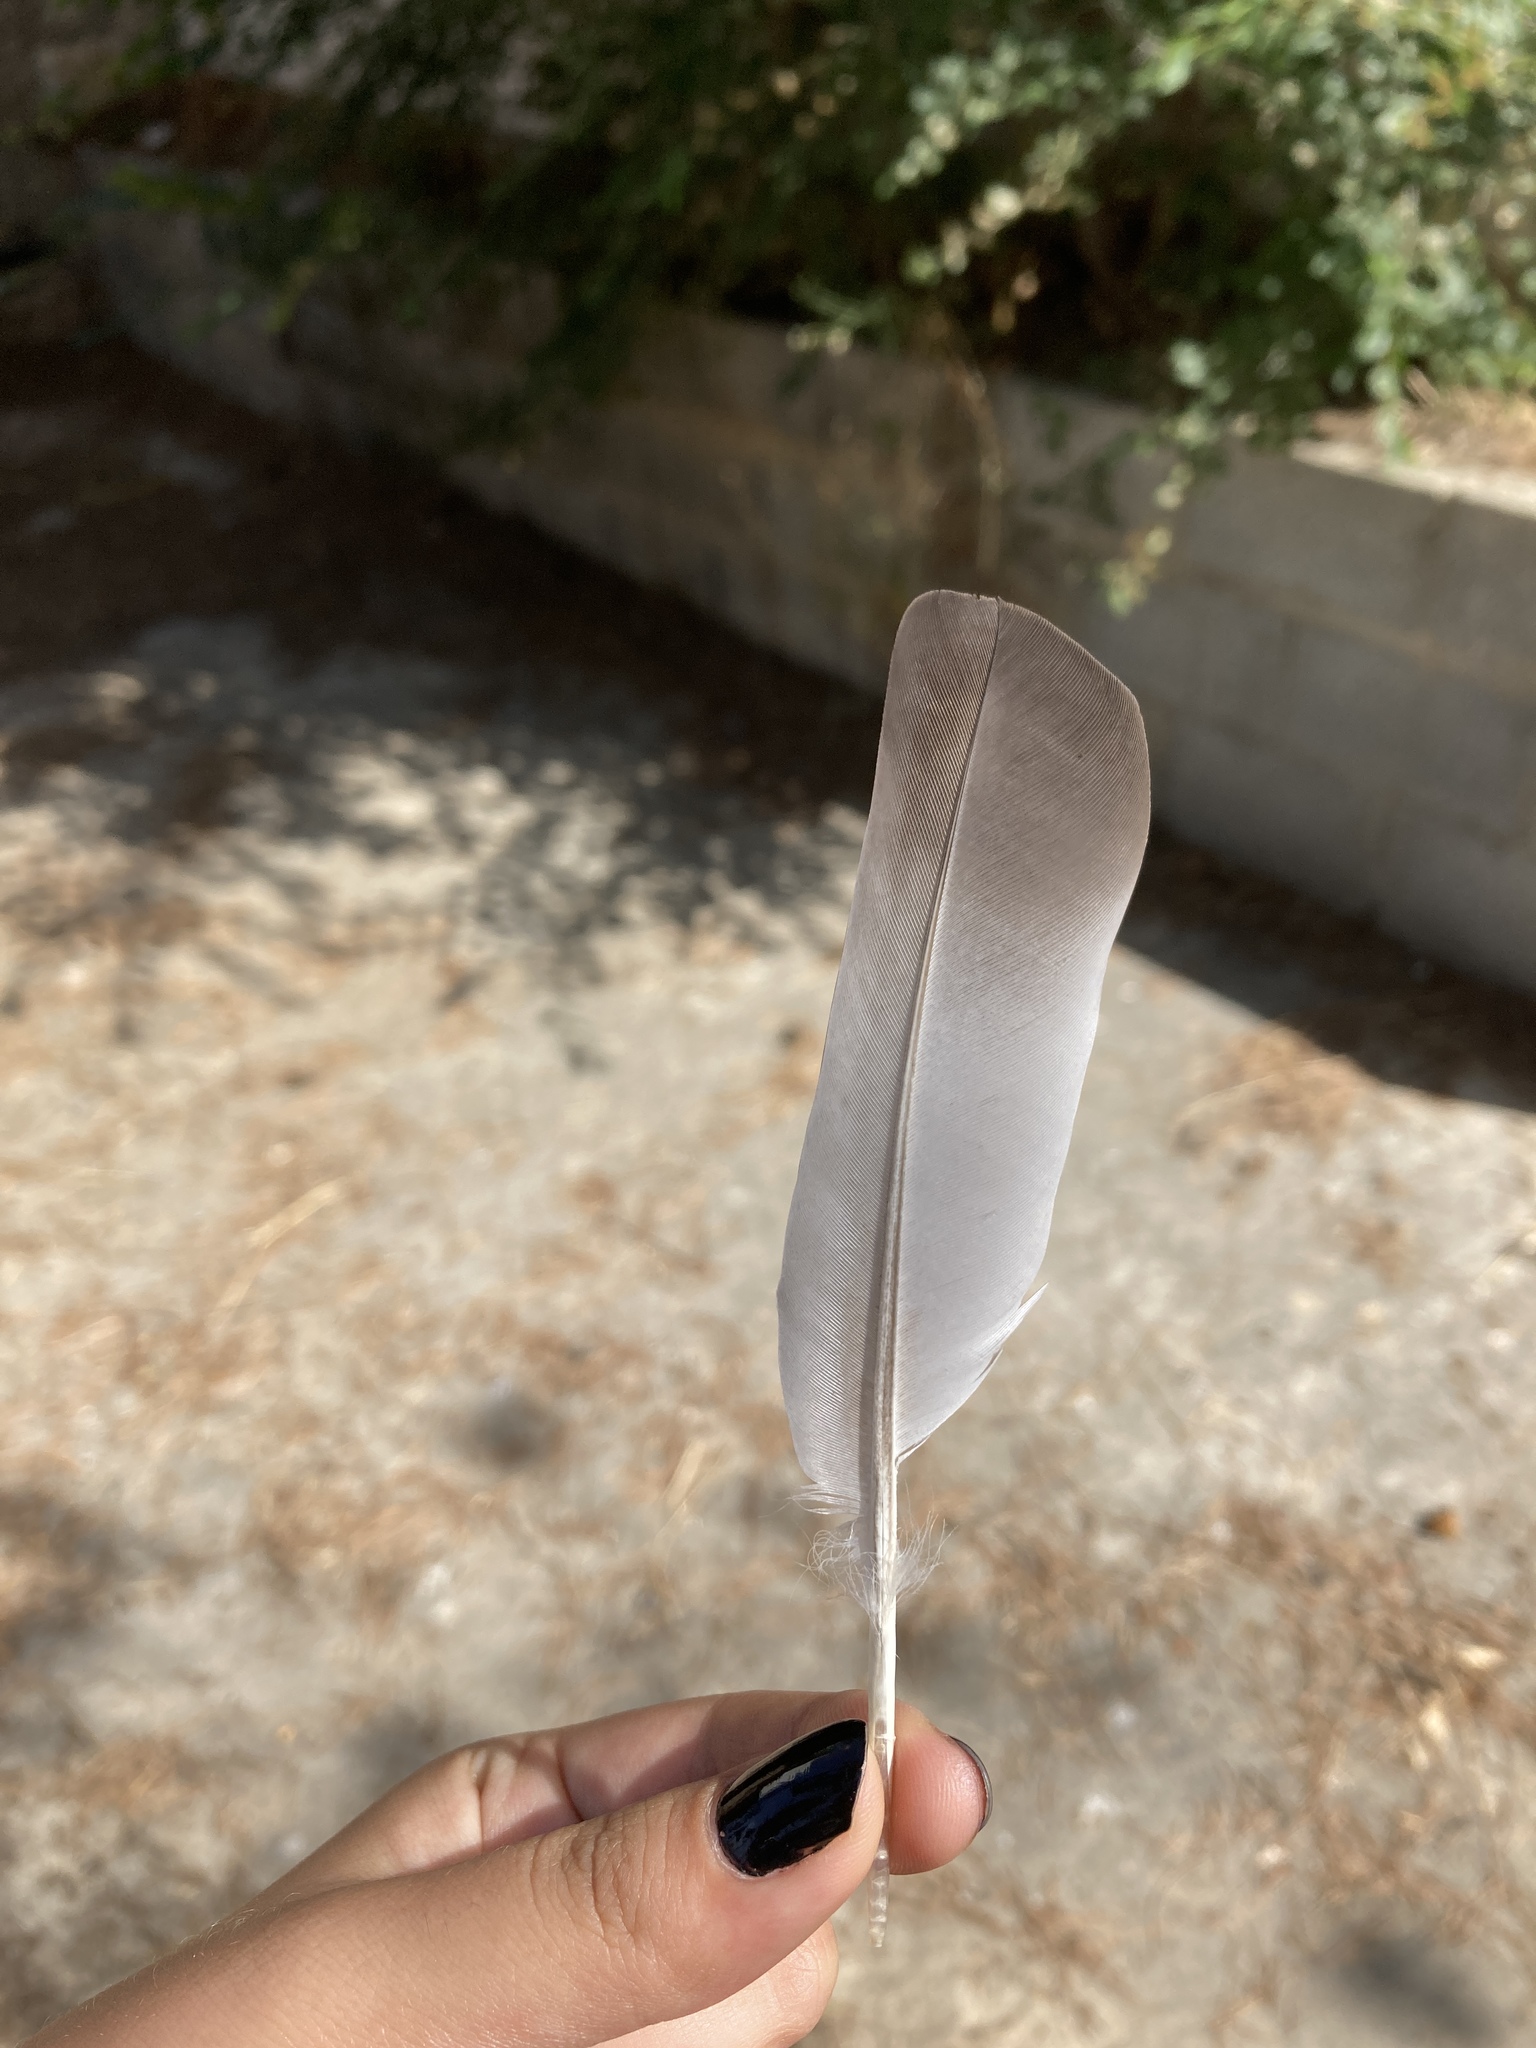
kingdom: Animalia
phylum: Chordata
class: Aves
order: Columbiformes
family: Columbidae
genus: Columba
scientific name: Columba livia
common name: Rock pigeon
